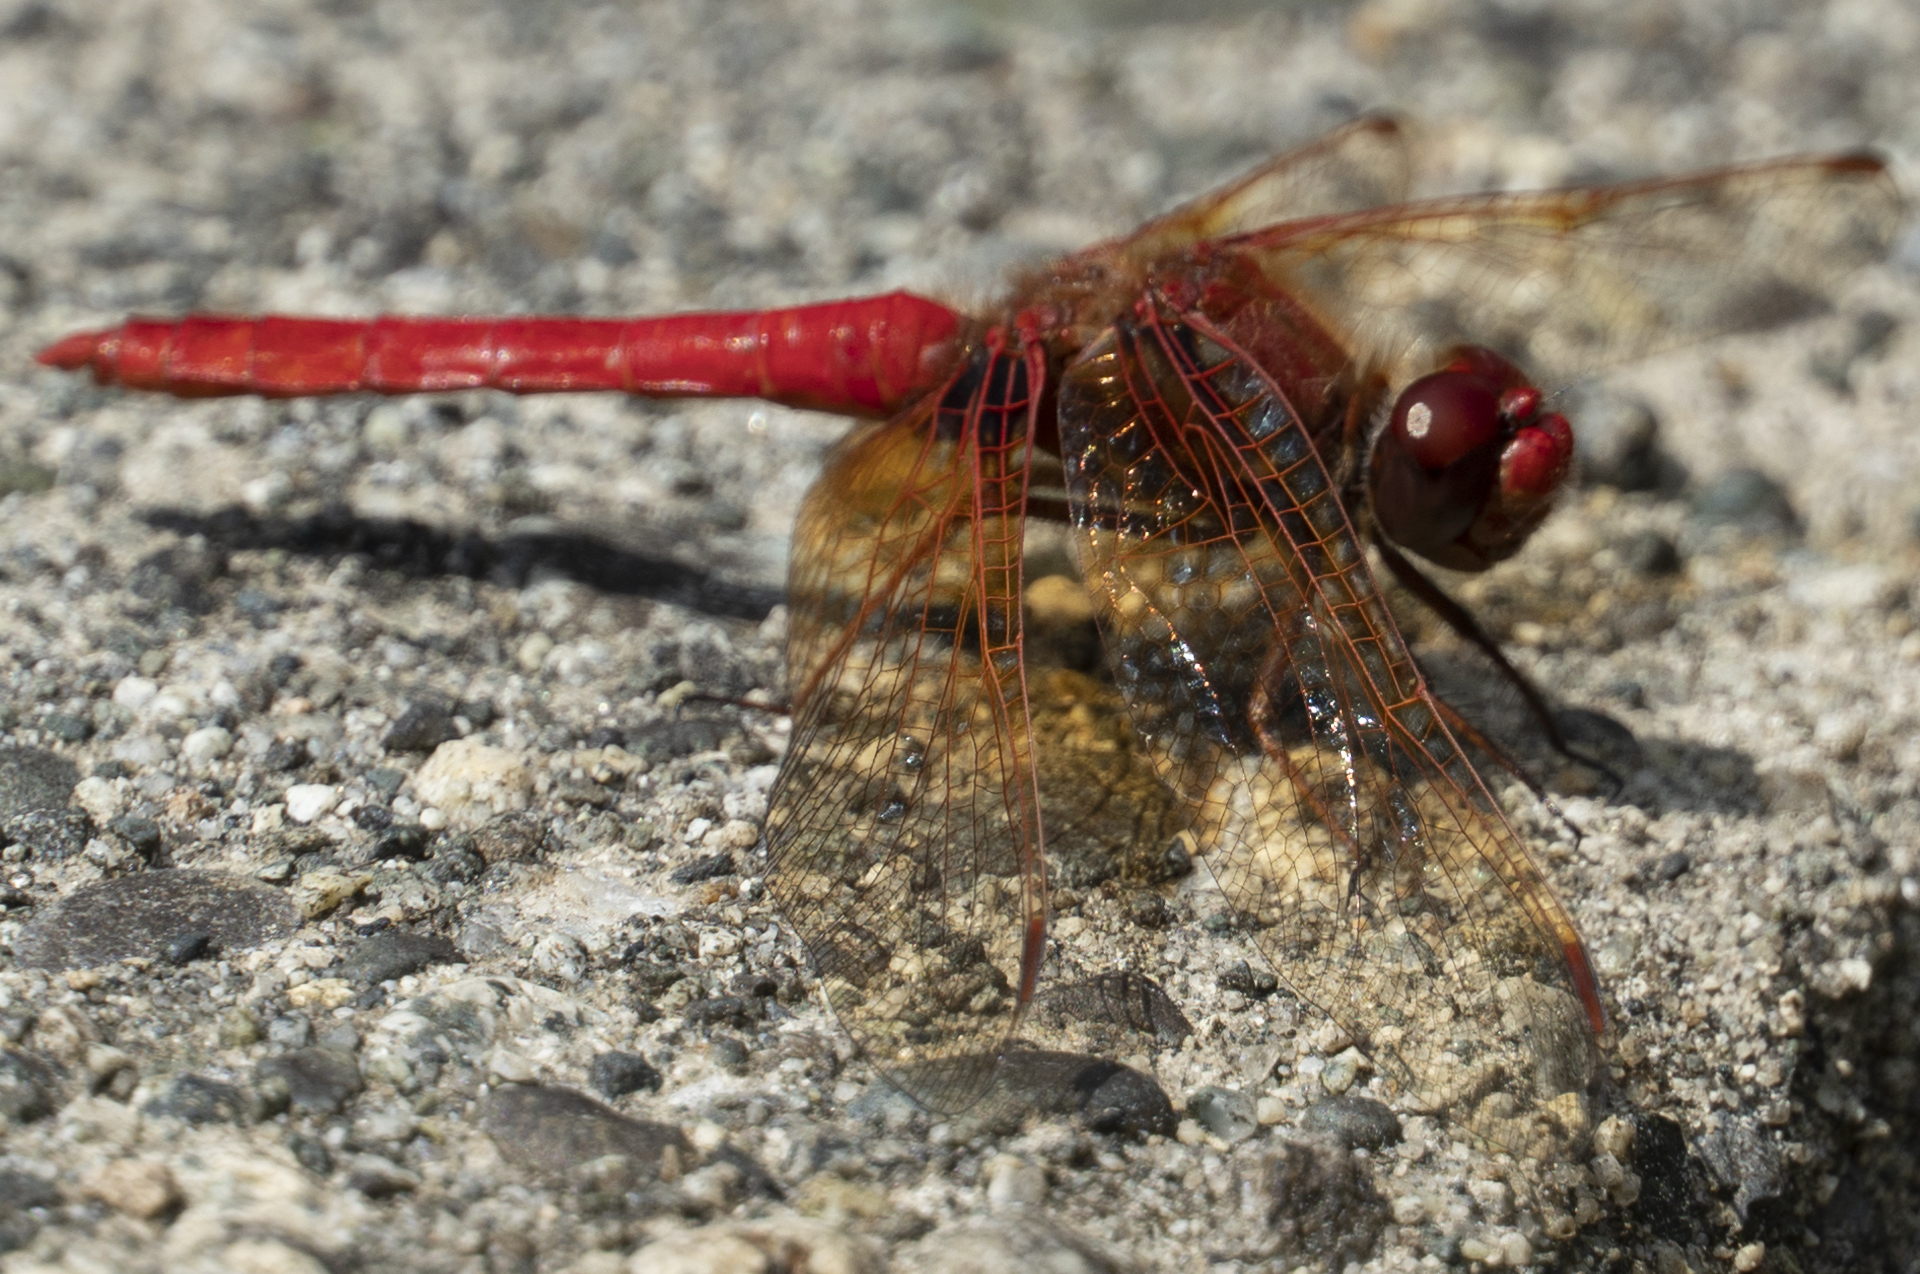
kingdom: Animalia
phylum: Arthropoda
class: Insecta
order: Odonata
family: Libellulidae
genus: Sympetrum
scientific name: Sympetrum illotum
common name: Cardinal meadowhawk
